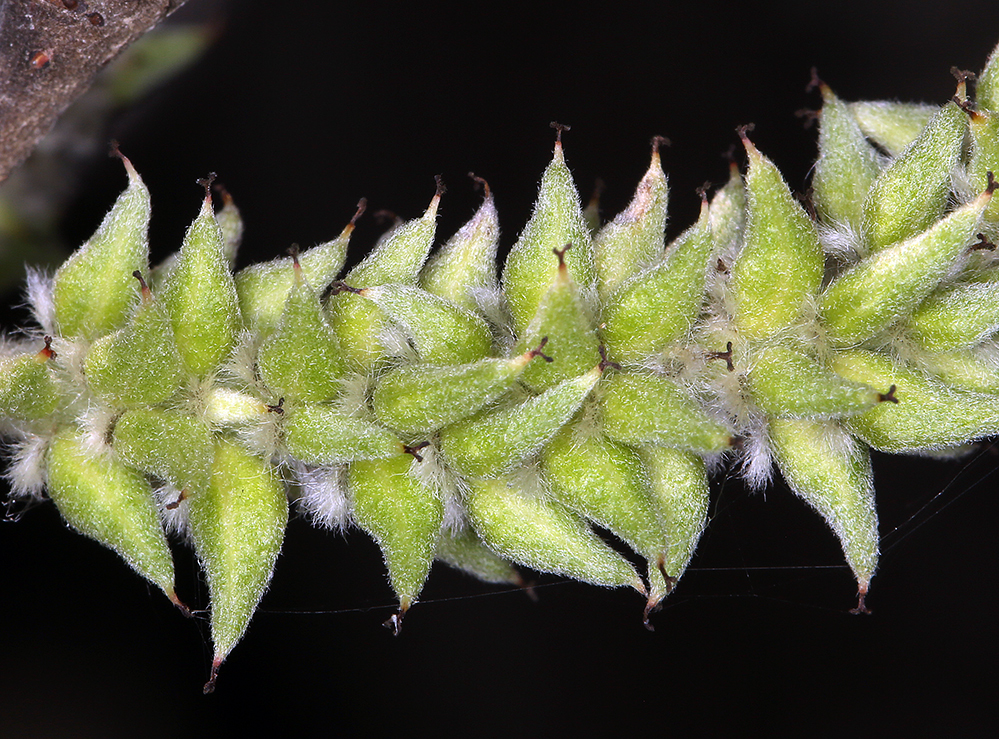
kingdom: Plantae
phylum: Tracheophyta
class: Magnoliopsida
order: Malpighiales
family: Salicaceae
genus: Salix
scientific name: Salix delnortensis
